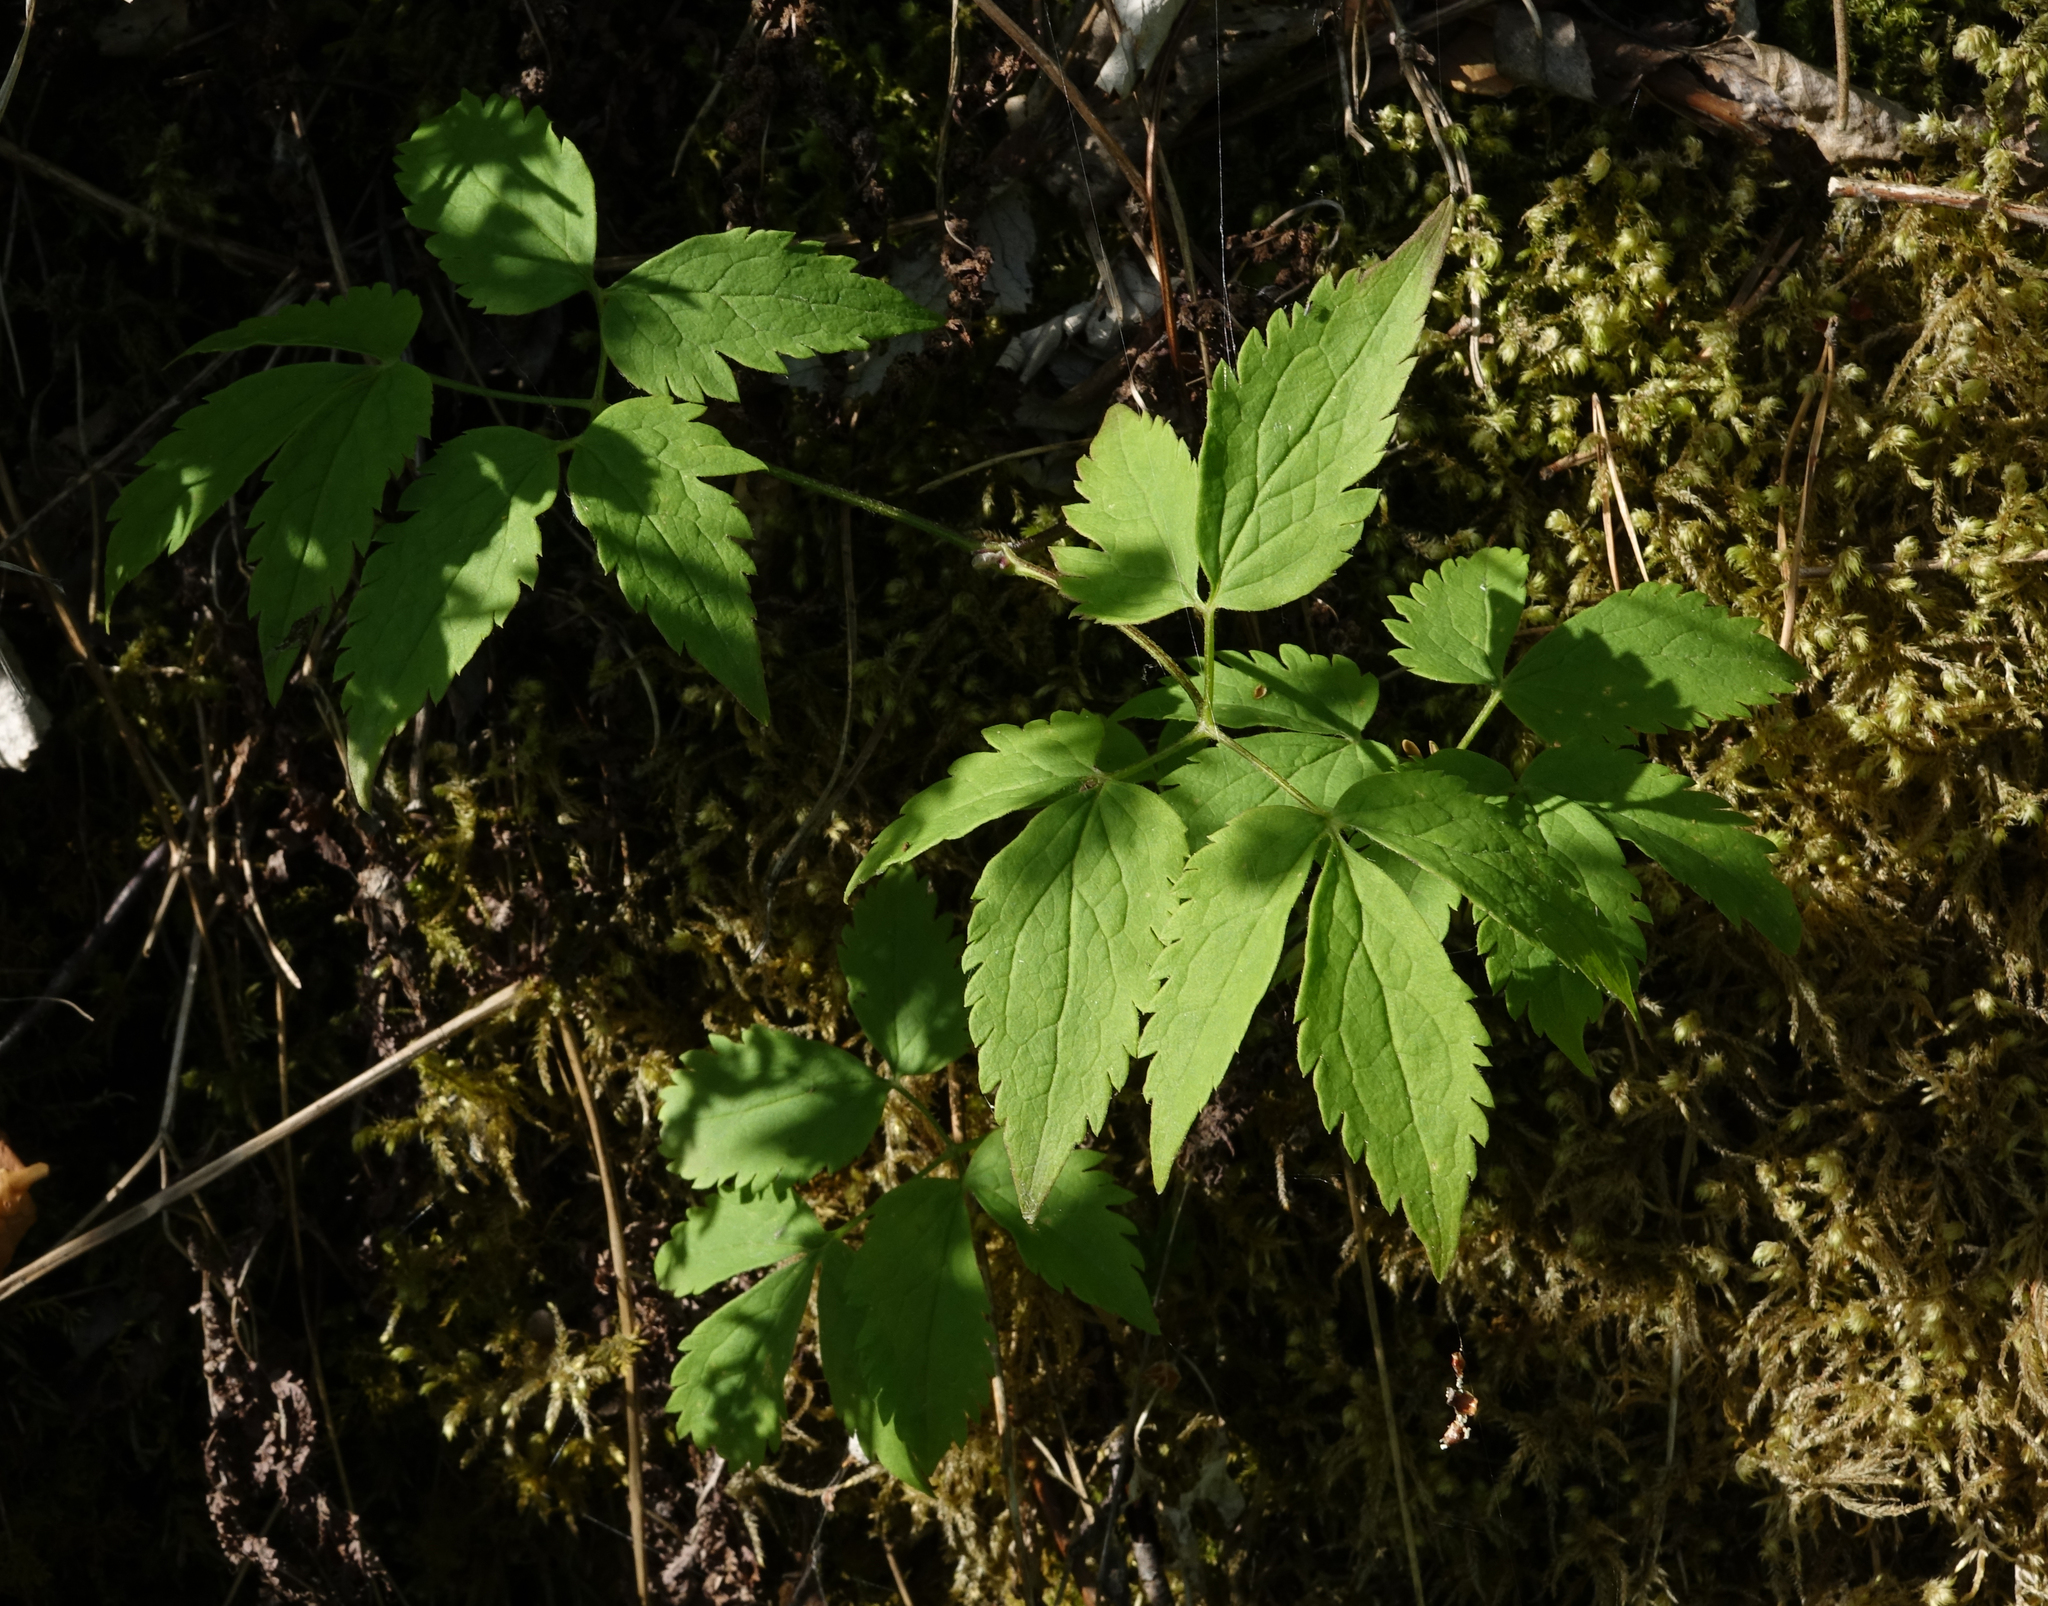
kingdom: Plantae
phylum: Tracheophyta
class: Magnoliopsida
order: Ranunculales
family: Ranunculaceae
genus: Clematis
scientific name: Clematis sibirica
